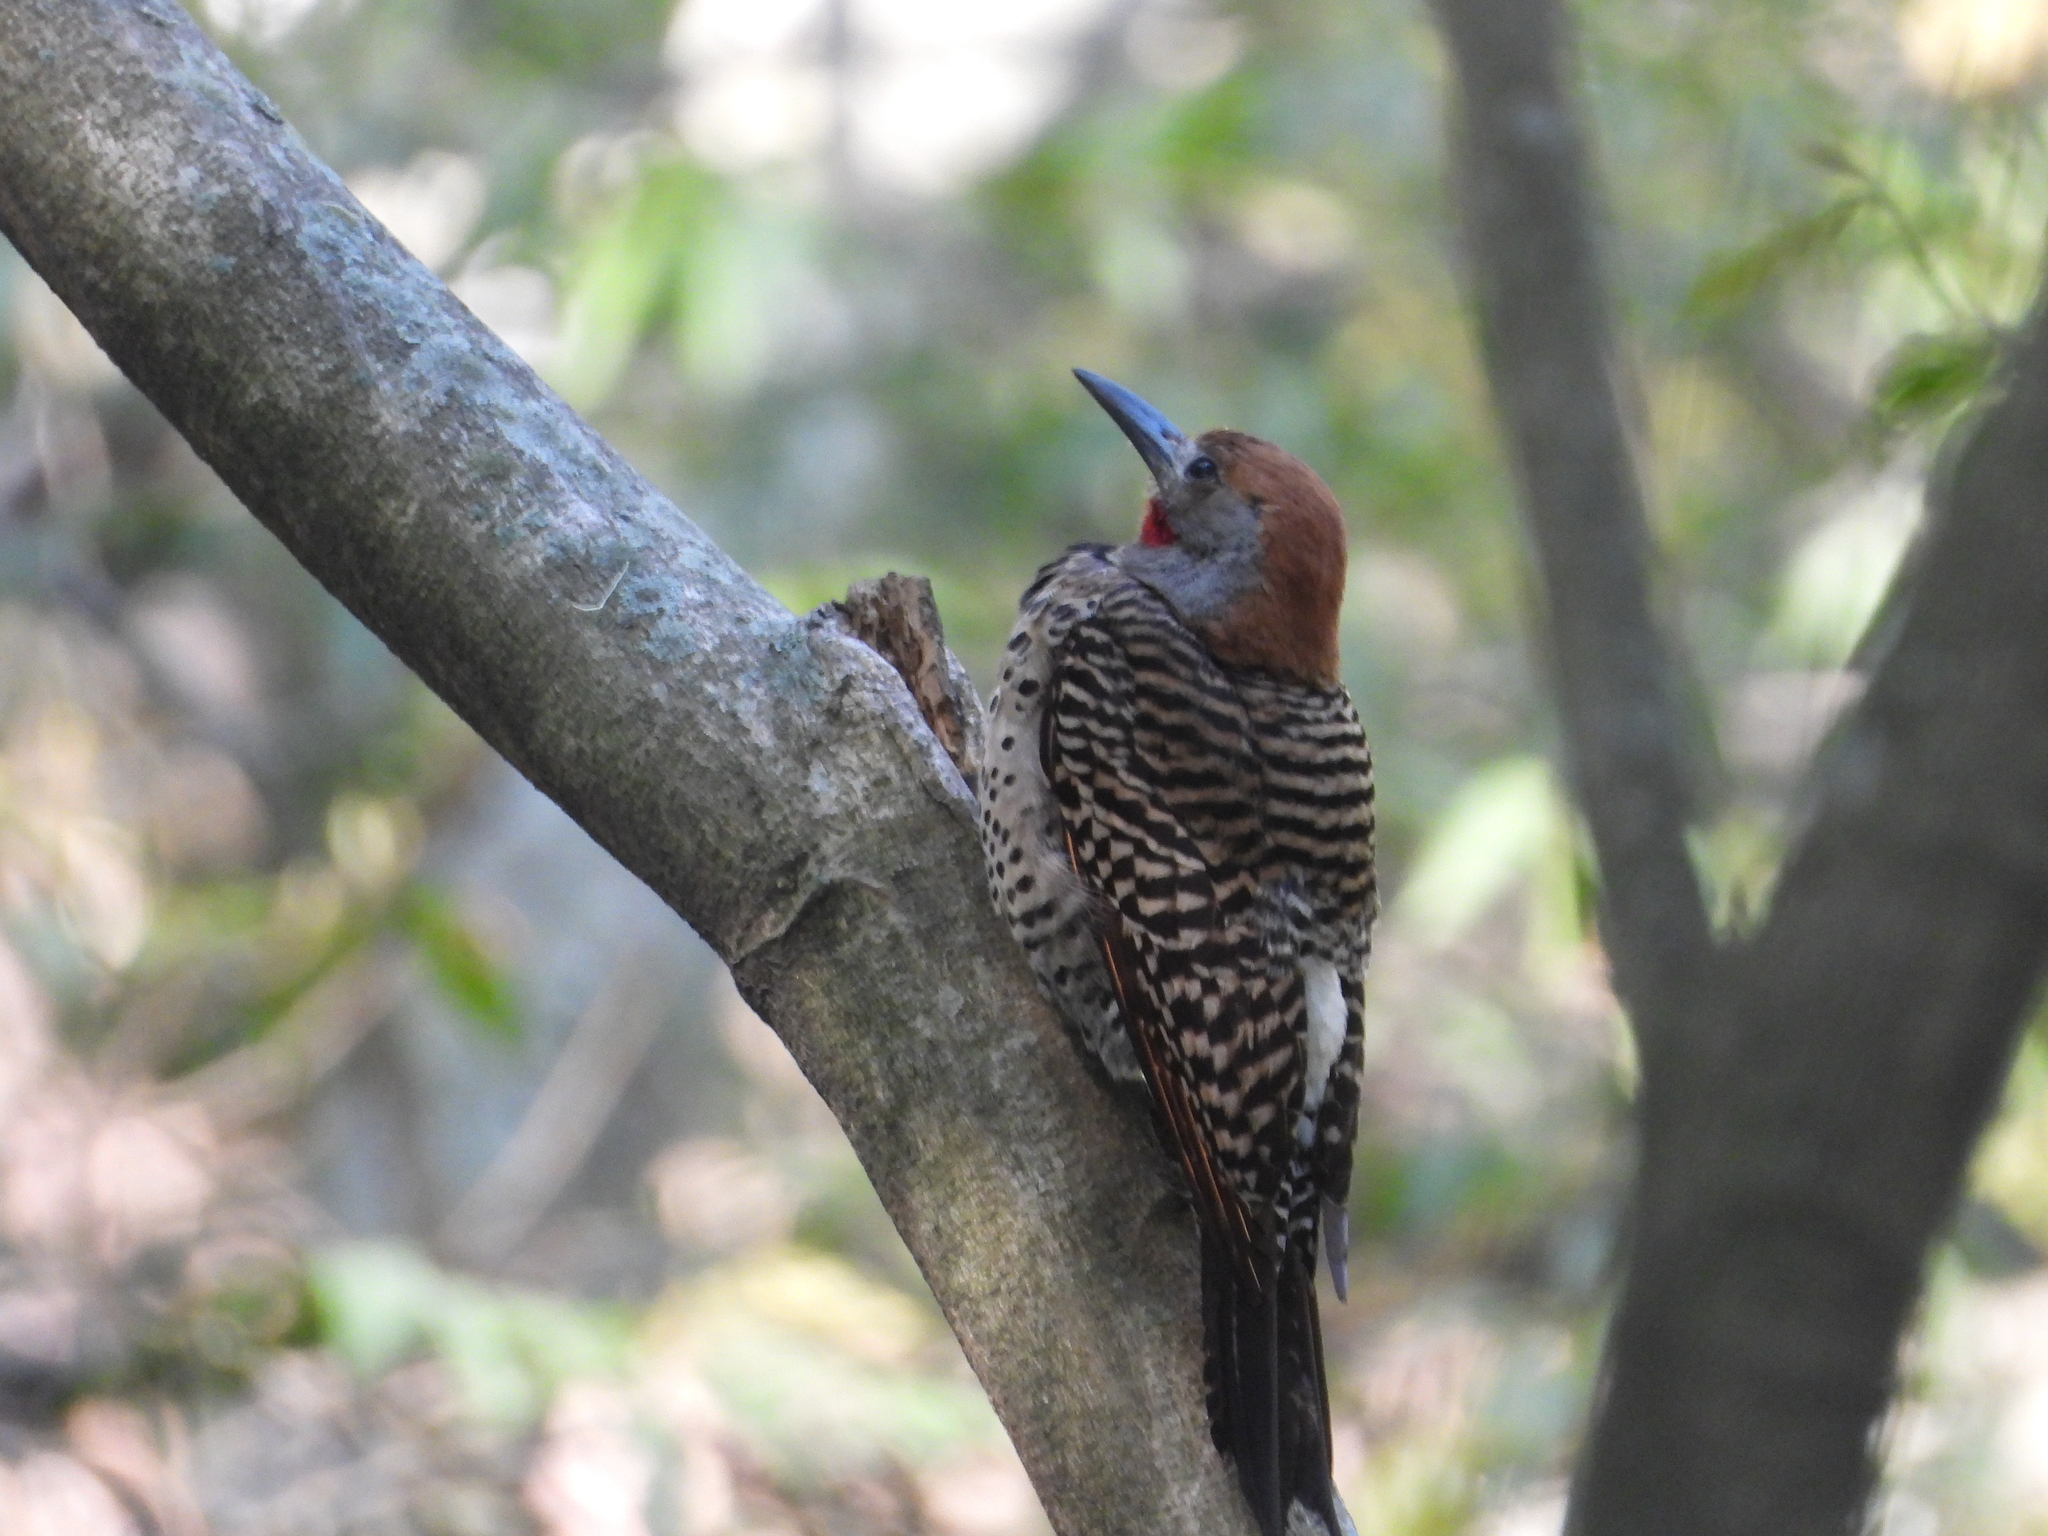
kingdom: Animalia
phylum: Chordata
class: Aves
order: Piciformes
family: Picidae
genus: Colaptes
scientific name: Colaptes auratus
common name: Northern flicker
